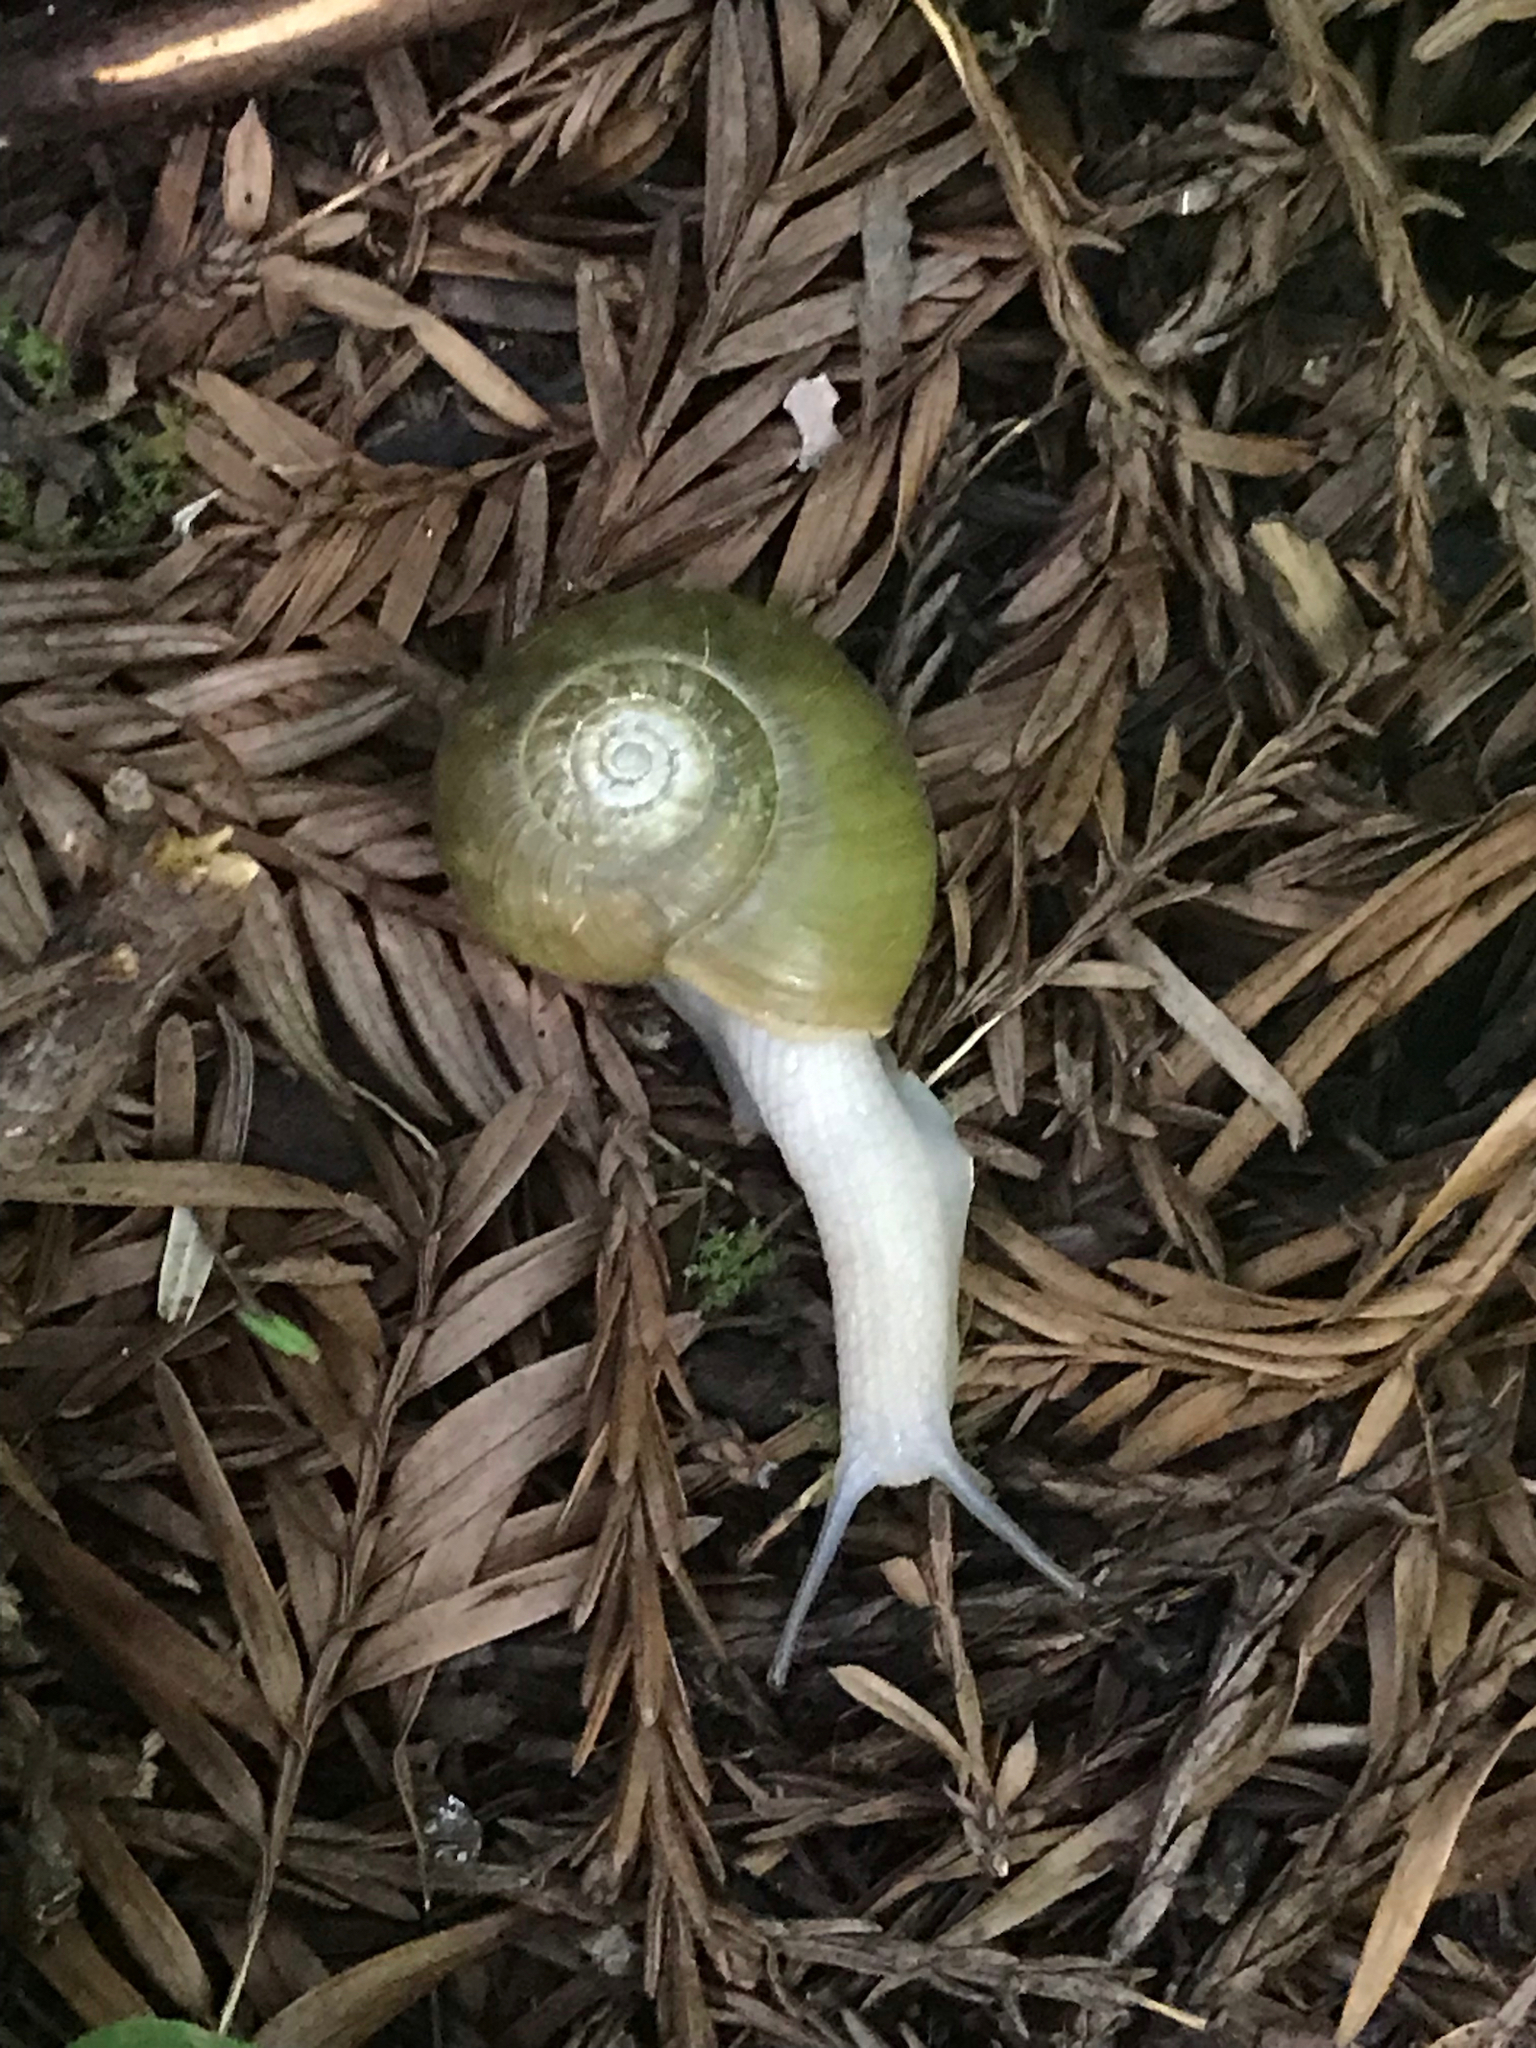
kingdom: Animalia
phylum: Mollusca
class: Gastropoda
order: Stylommatophora
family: Haplotrematidae
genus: Haplotrema
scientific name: Haplotrema vancouverense
